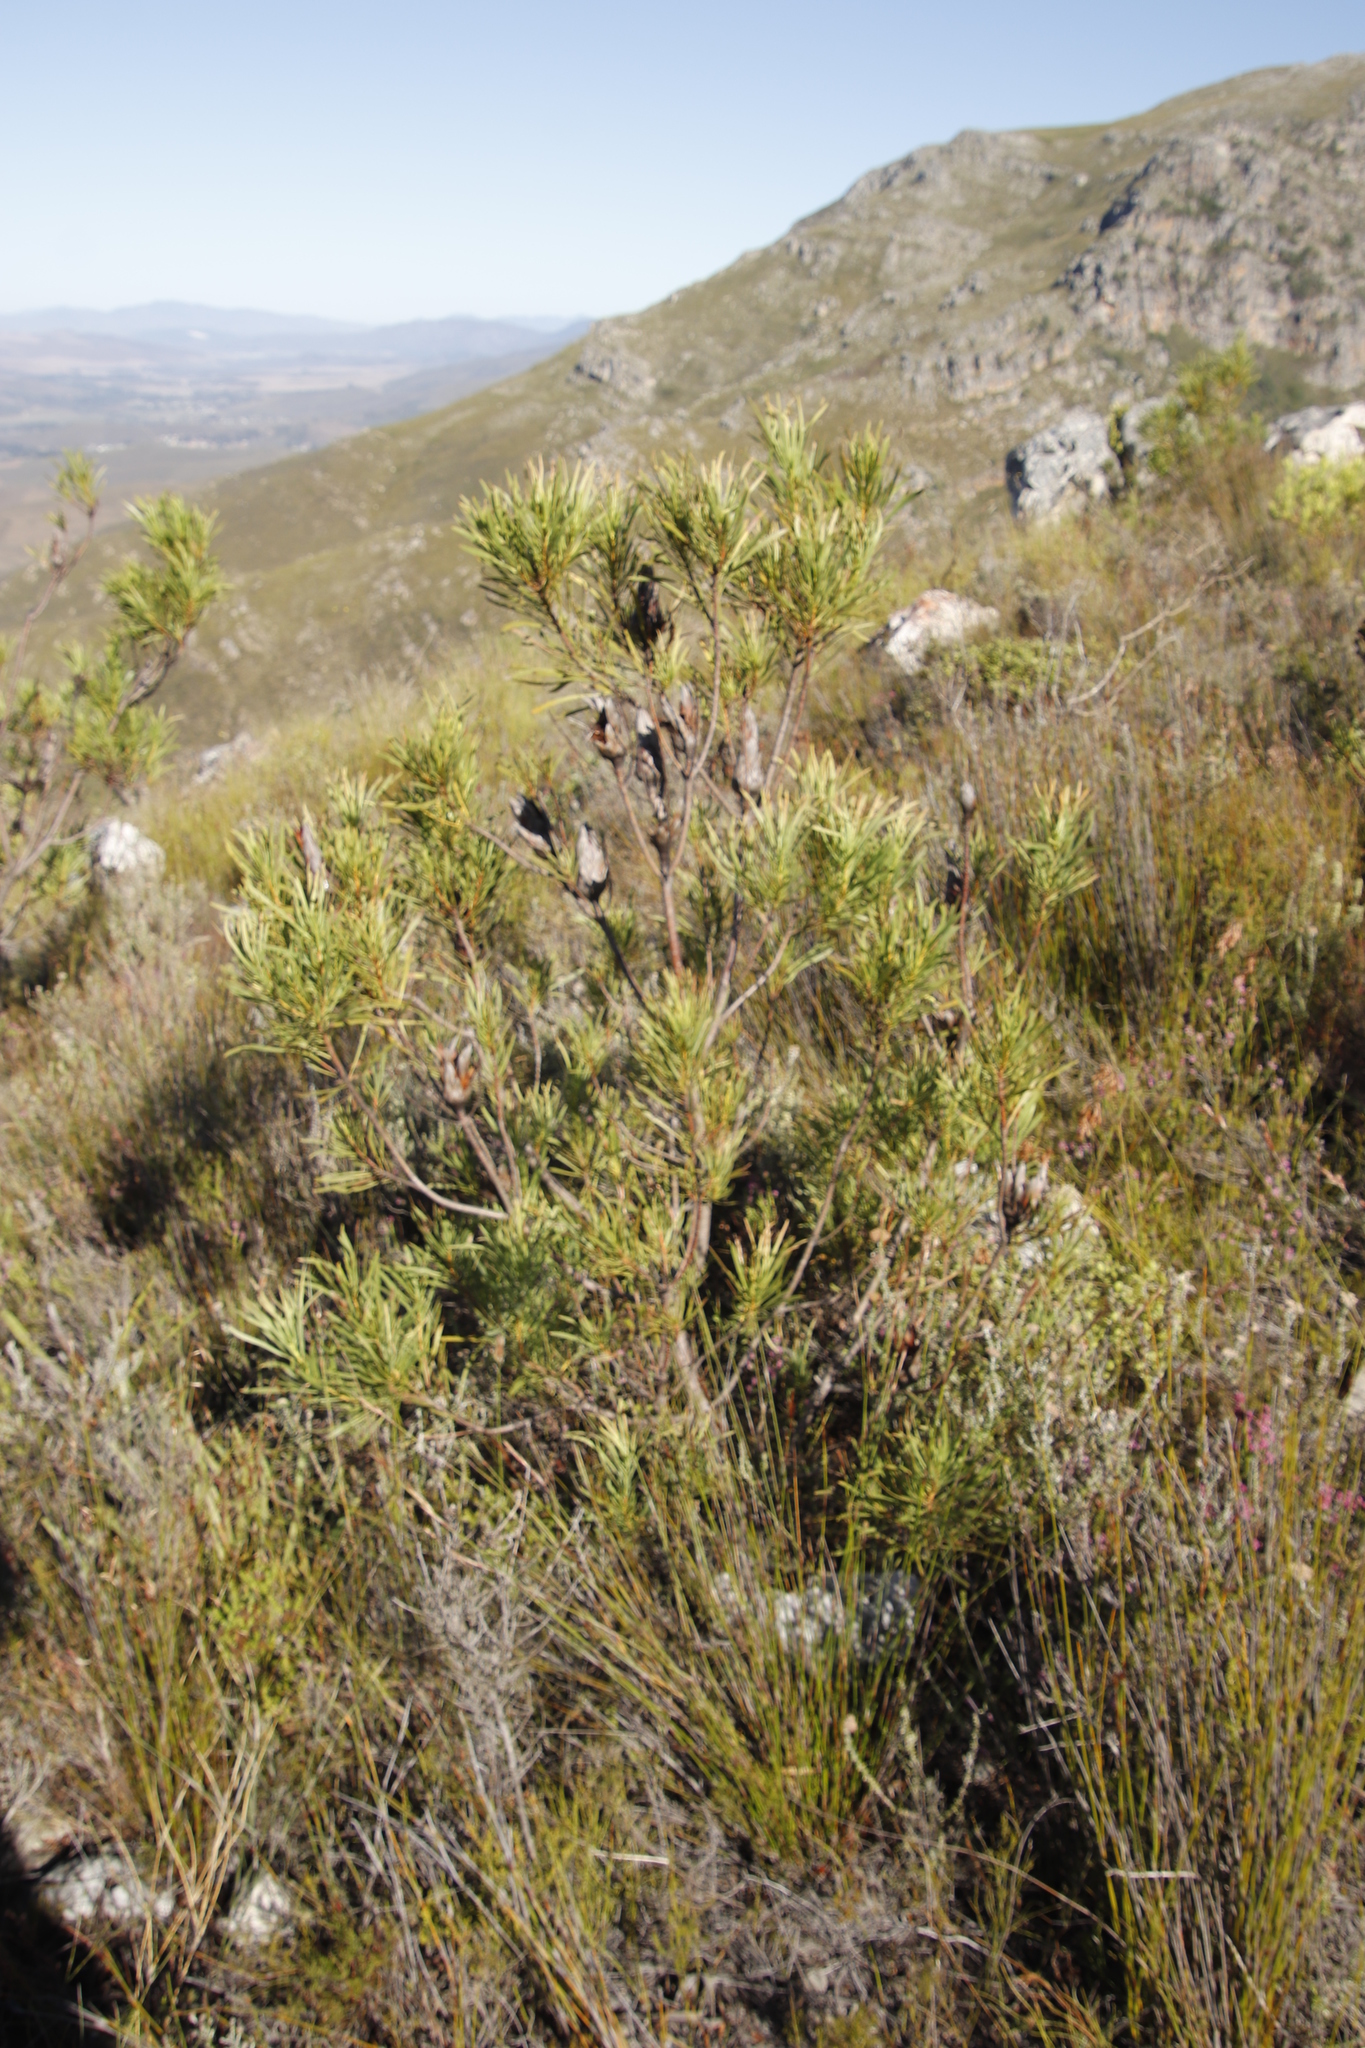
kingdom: Plantae
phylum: Tracheophyta
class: Magnoliopsida
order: Proteales
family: Proteaceae
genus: Protea
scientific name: Protea repens
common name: Sugarbush
